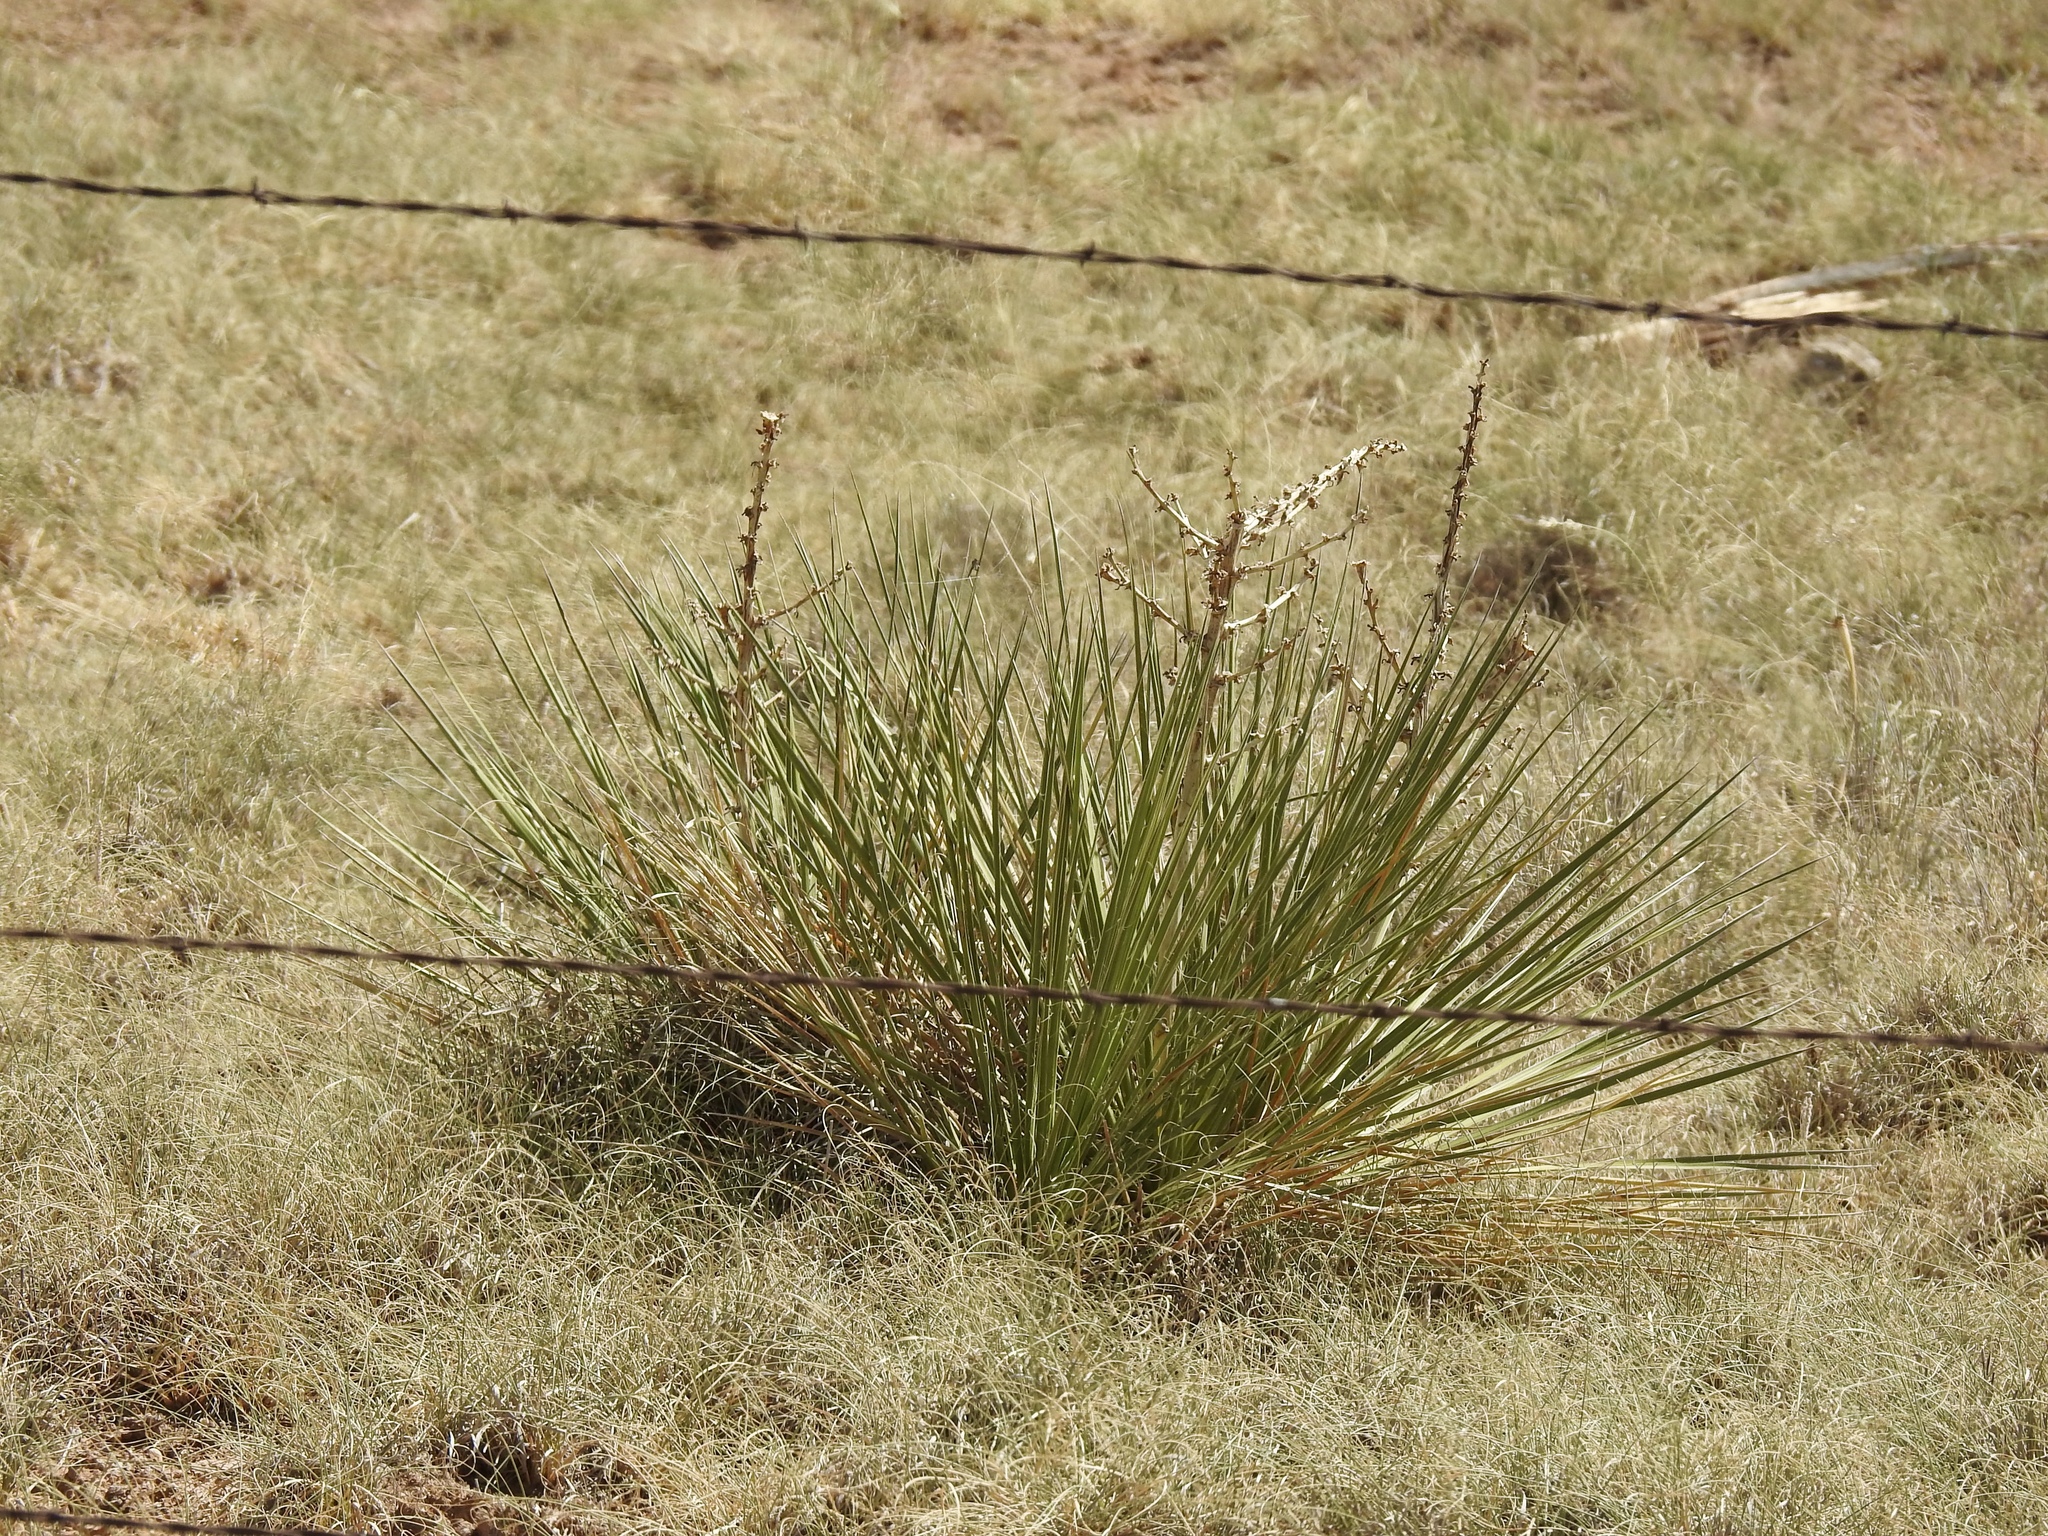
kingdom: Plantae
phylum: Tracheophyta
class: Liliopsida
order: Asparagales
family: Asparagaceae
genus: Yucca
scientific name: Yucca campestris
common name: Plains yucca
